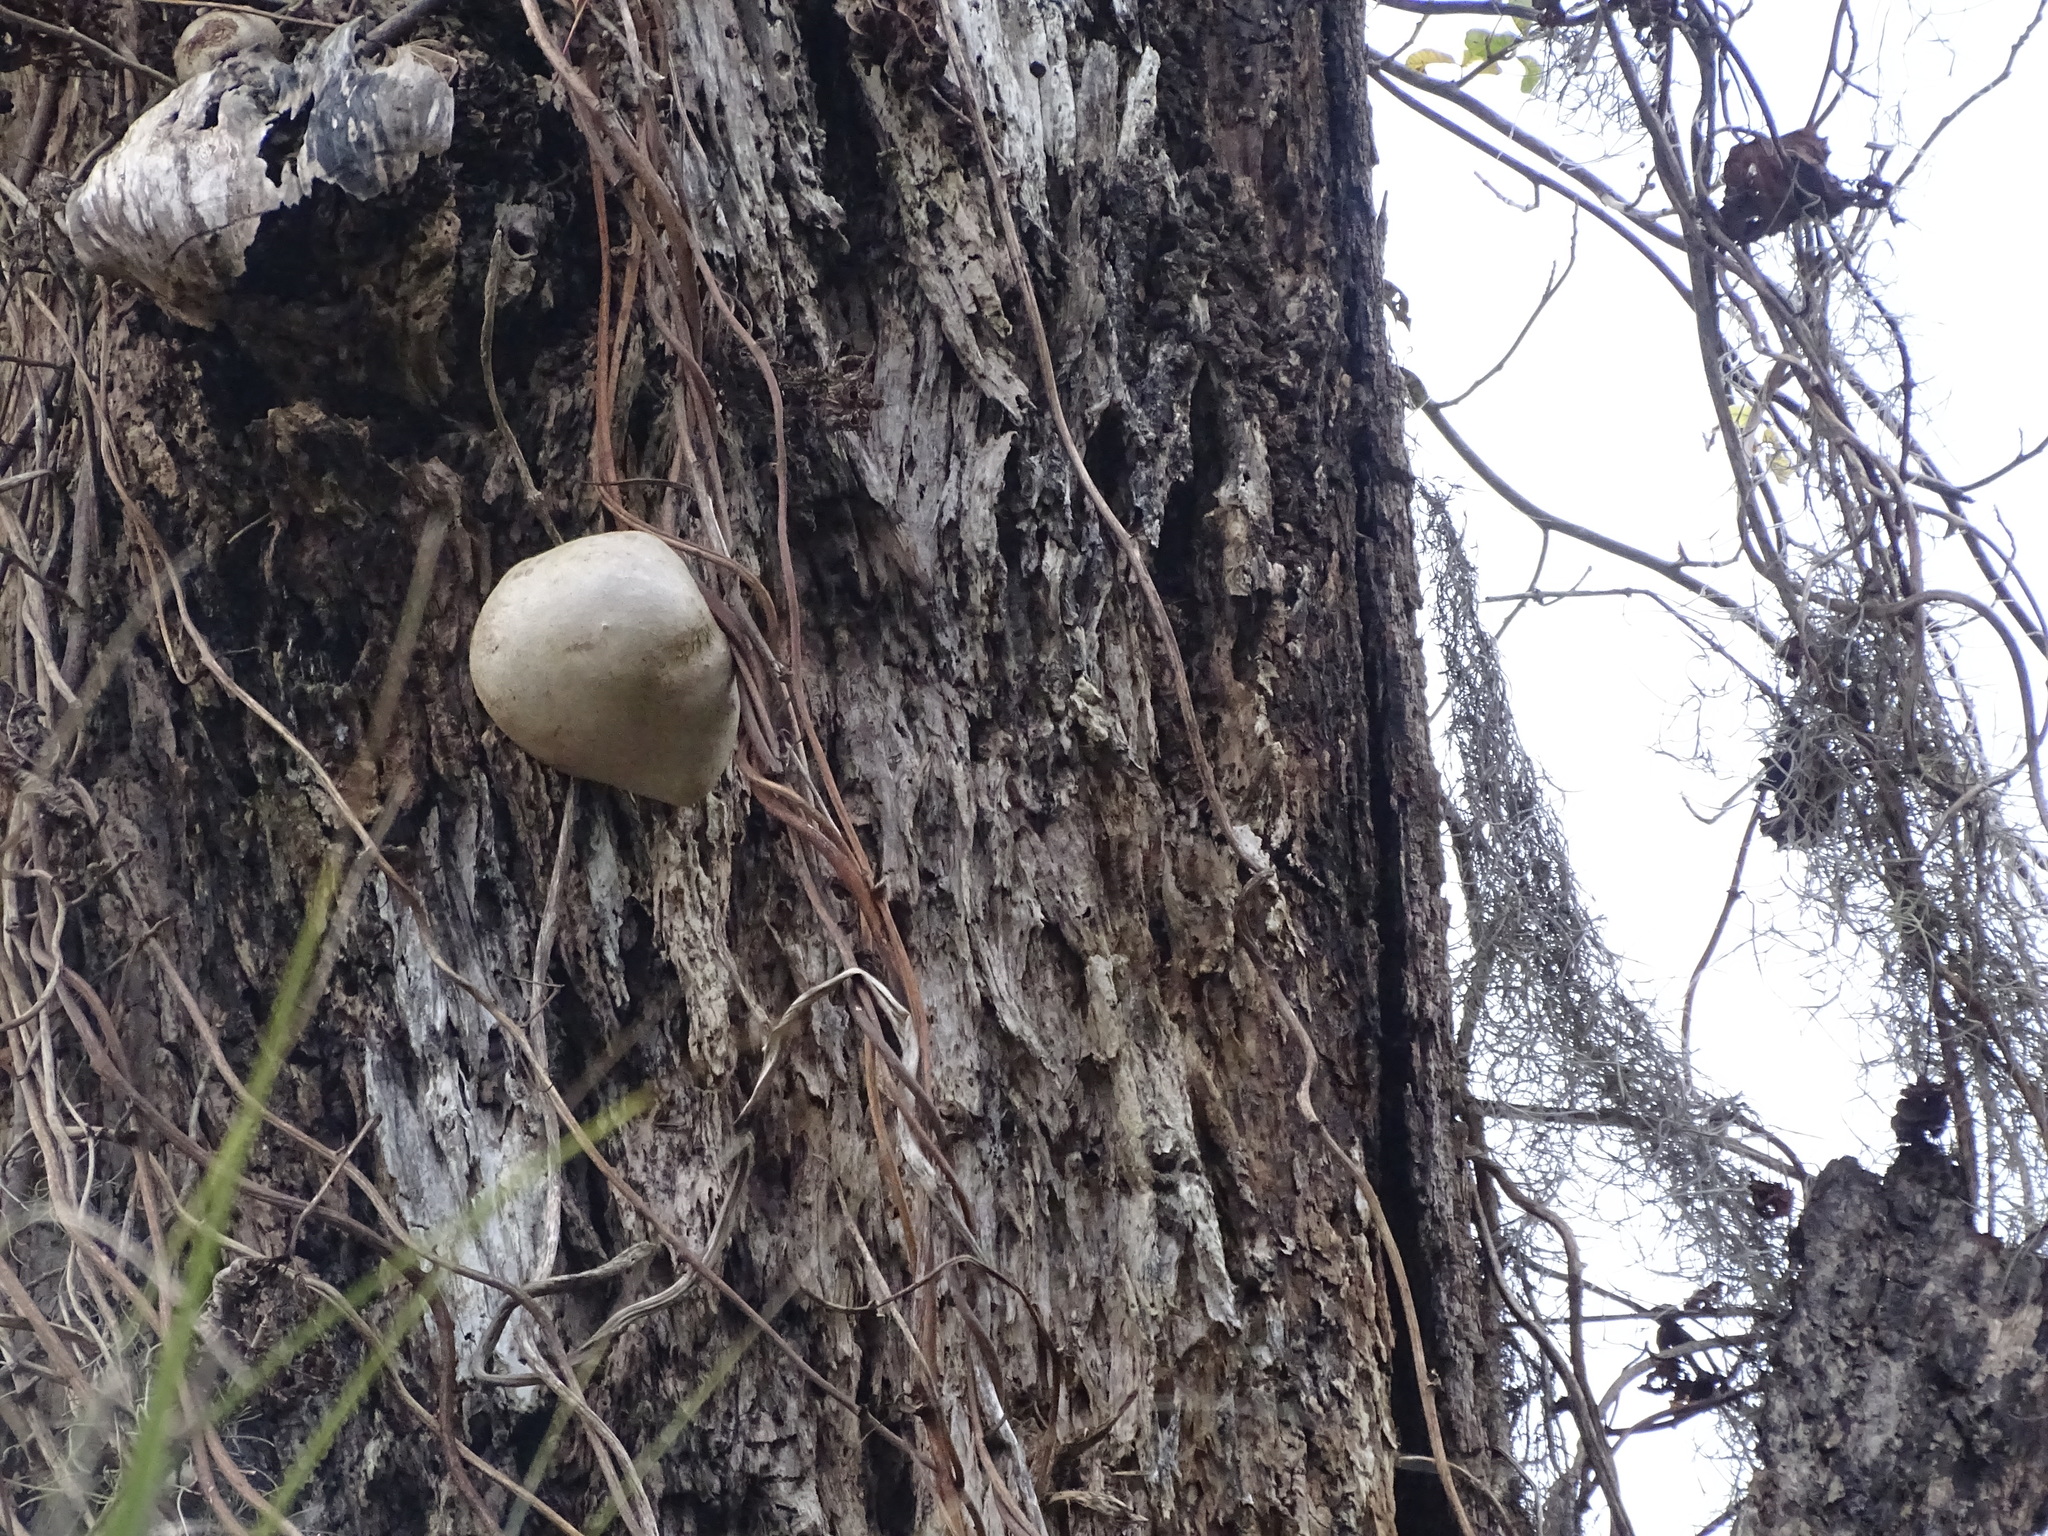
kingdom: Plantae
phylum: Tracheophyta
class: Liliopsida
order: Dioscoreales
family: Dioscoreaceae
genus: Dioscorea
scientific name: Dioscorea bulbifera
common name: Air yam
